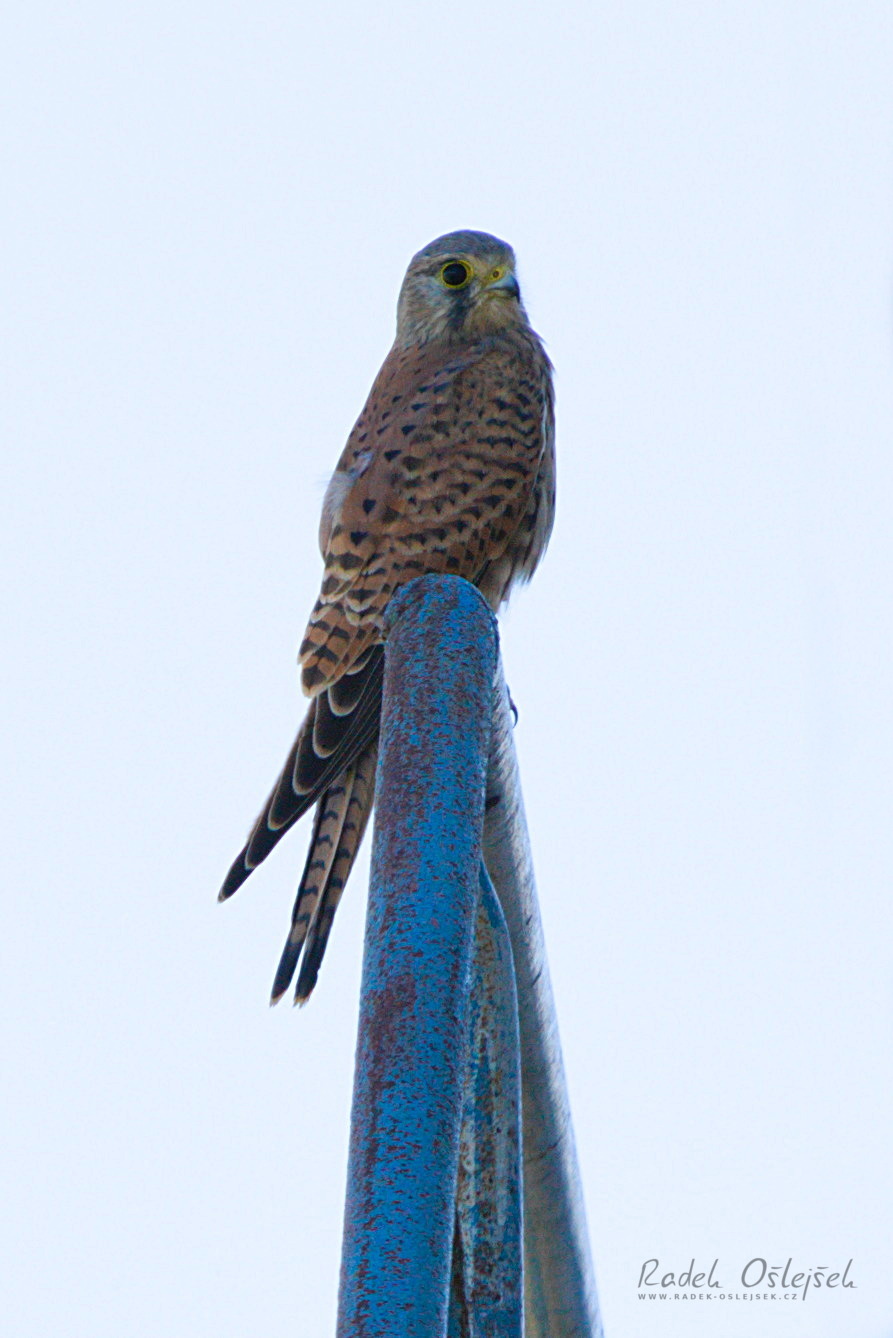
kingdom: Animalia
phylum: Chordata
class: Aves
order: Falconiformes
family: Falconidae
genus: Falco
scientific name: Falco tinnunculus
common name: Common kestrel
